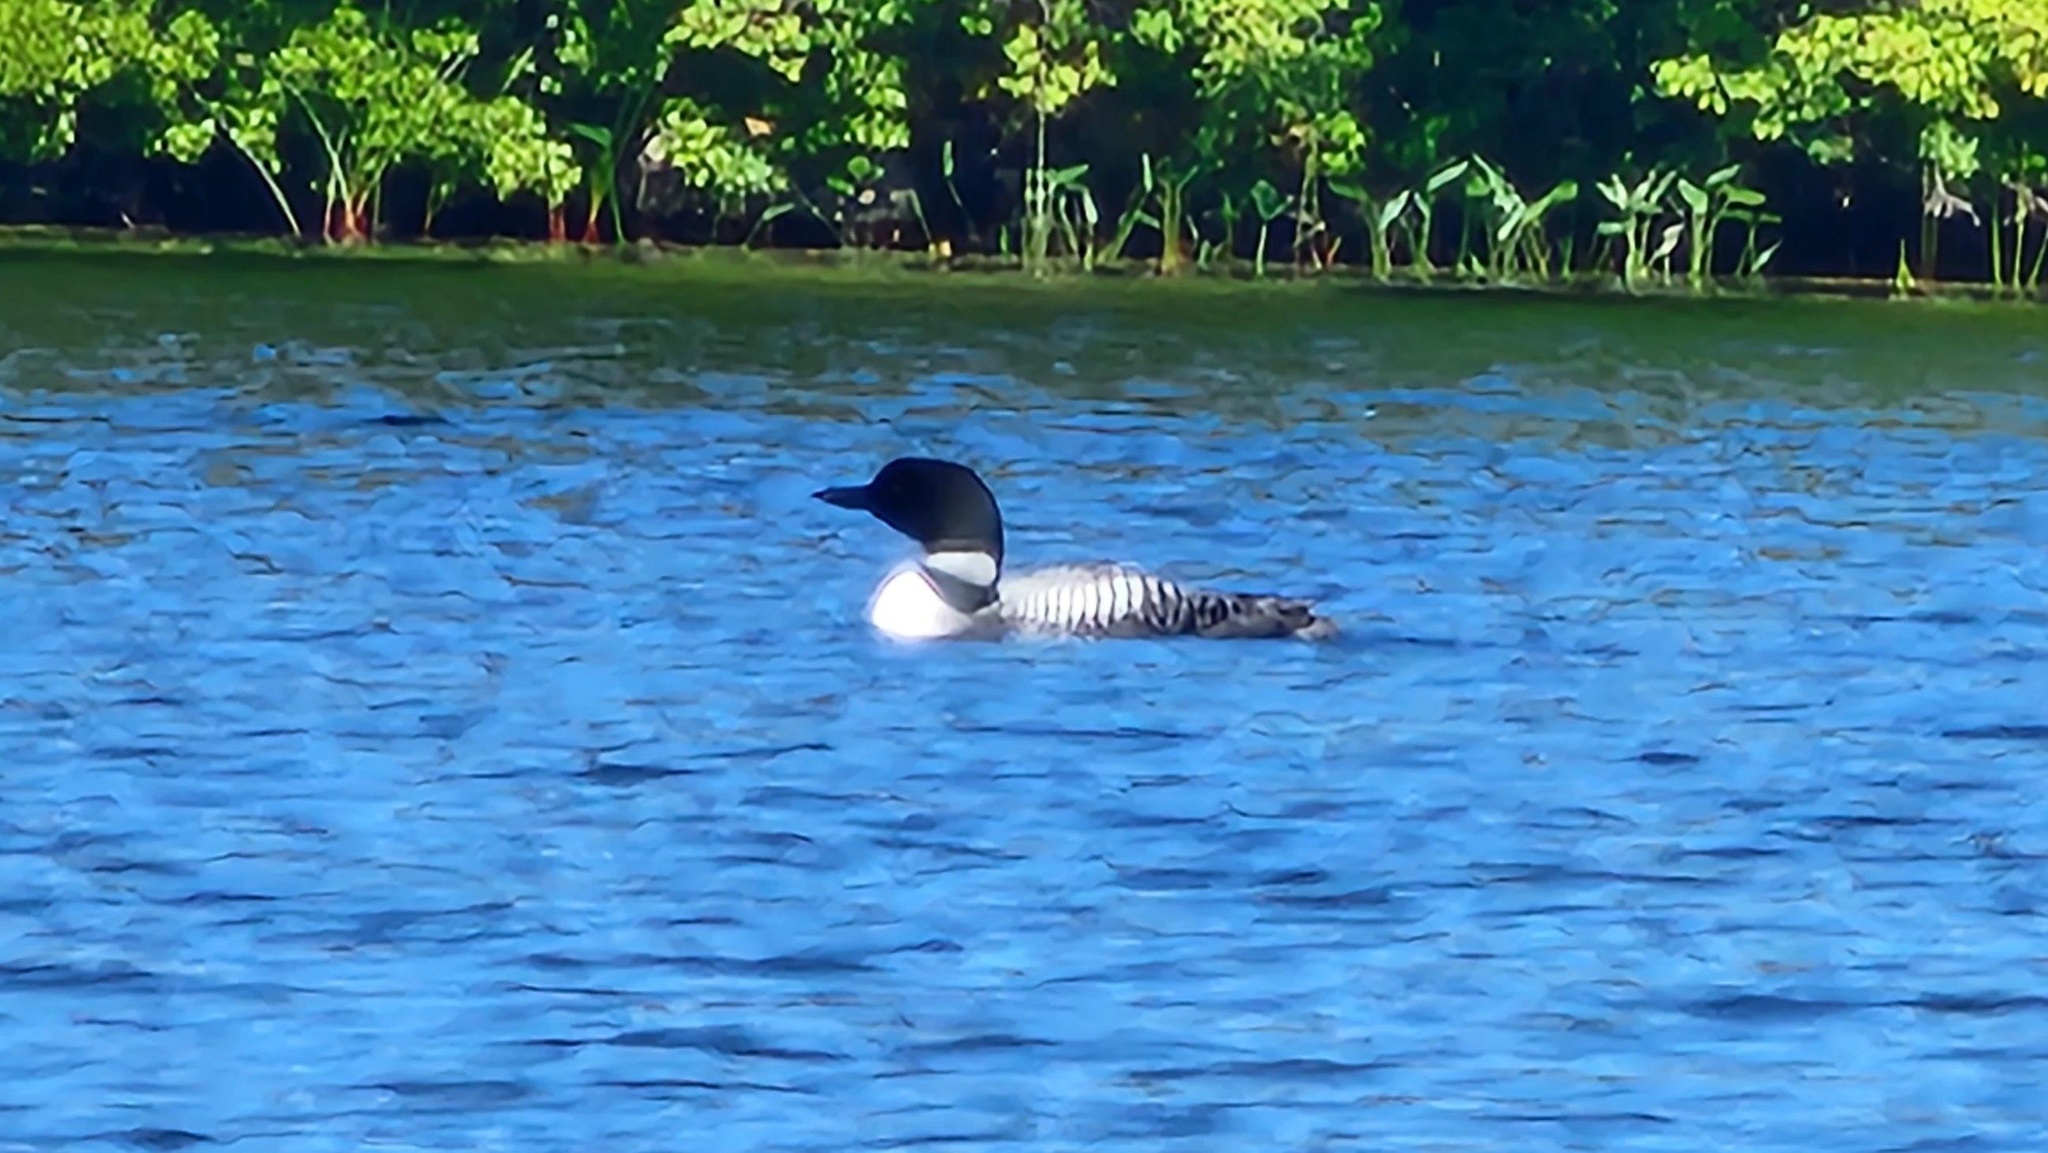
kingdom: Animalia
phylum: Chordata
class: Aves
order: Gaviiformes
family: Gaviidae
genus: Gavia
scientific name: Gavia immer
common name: Common loon
